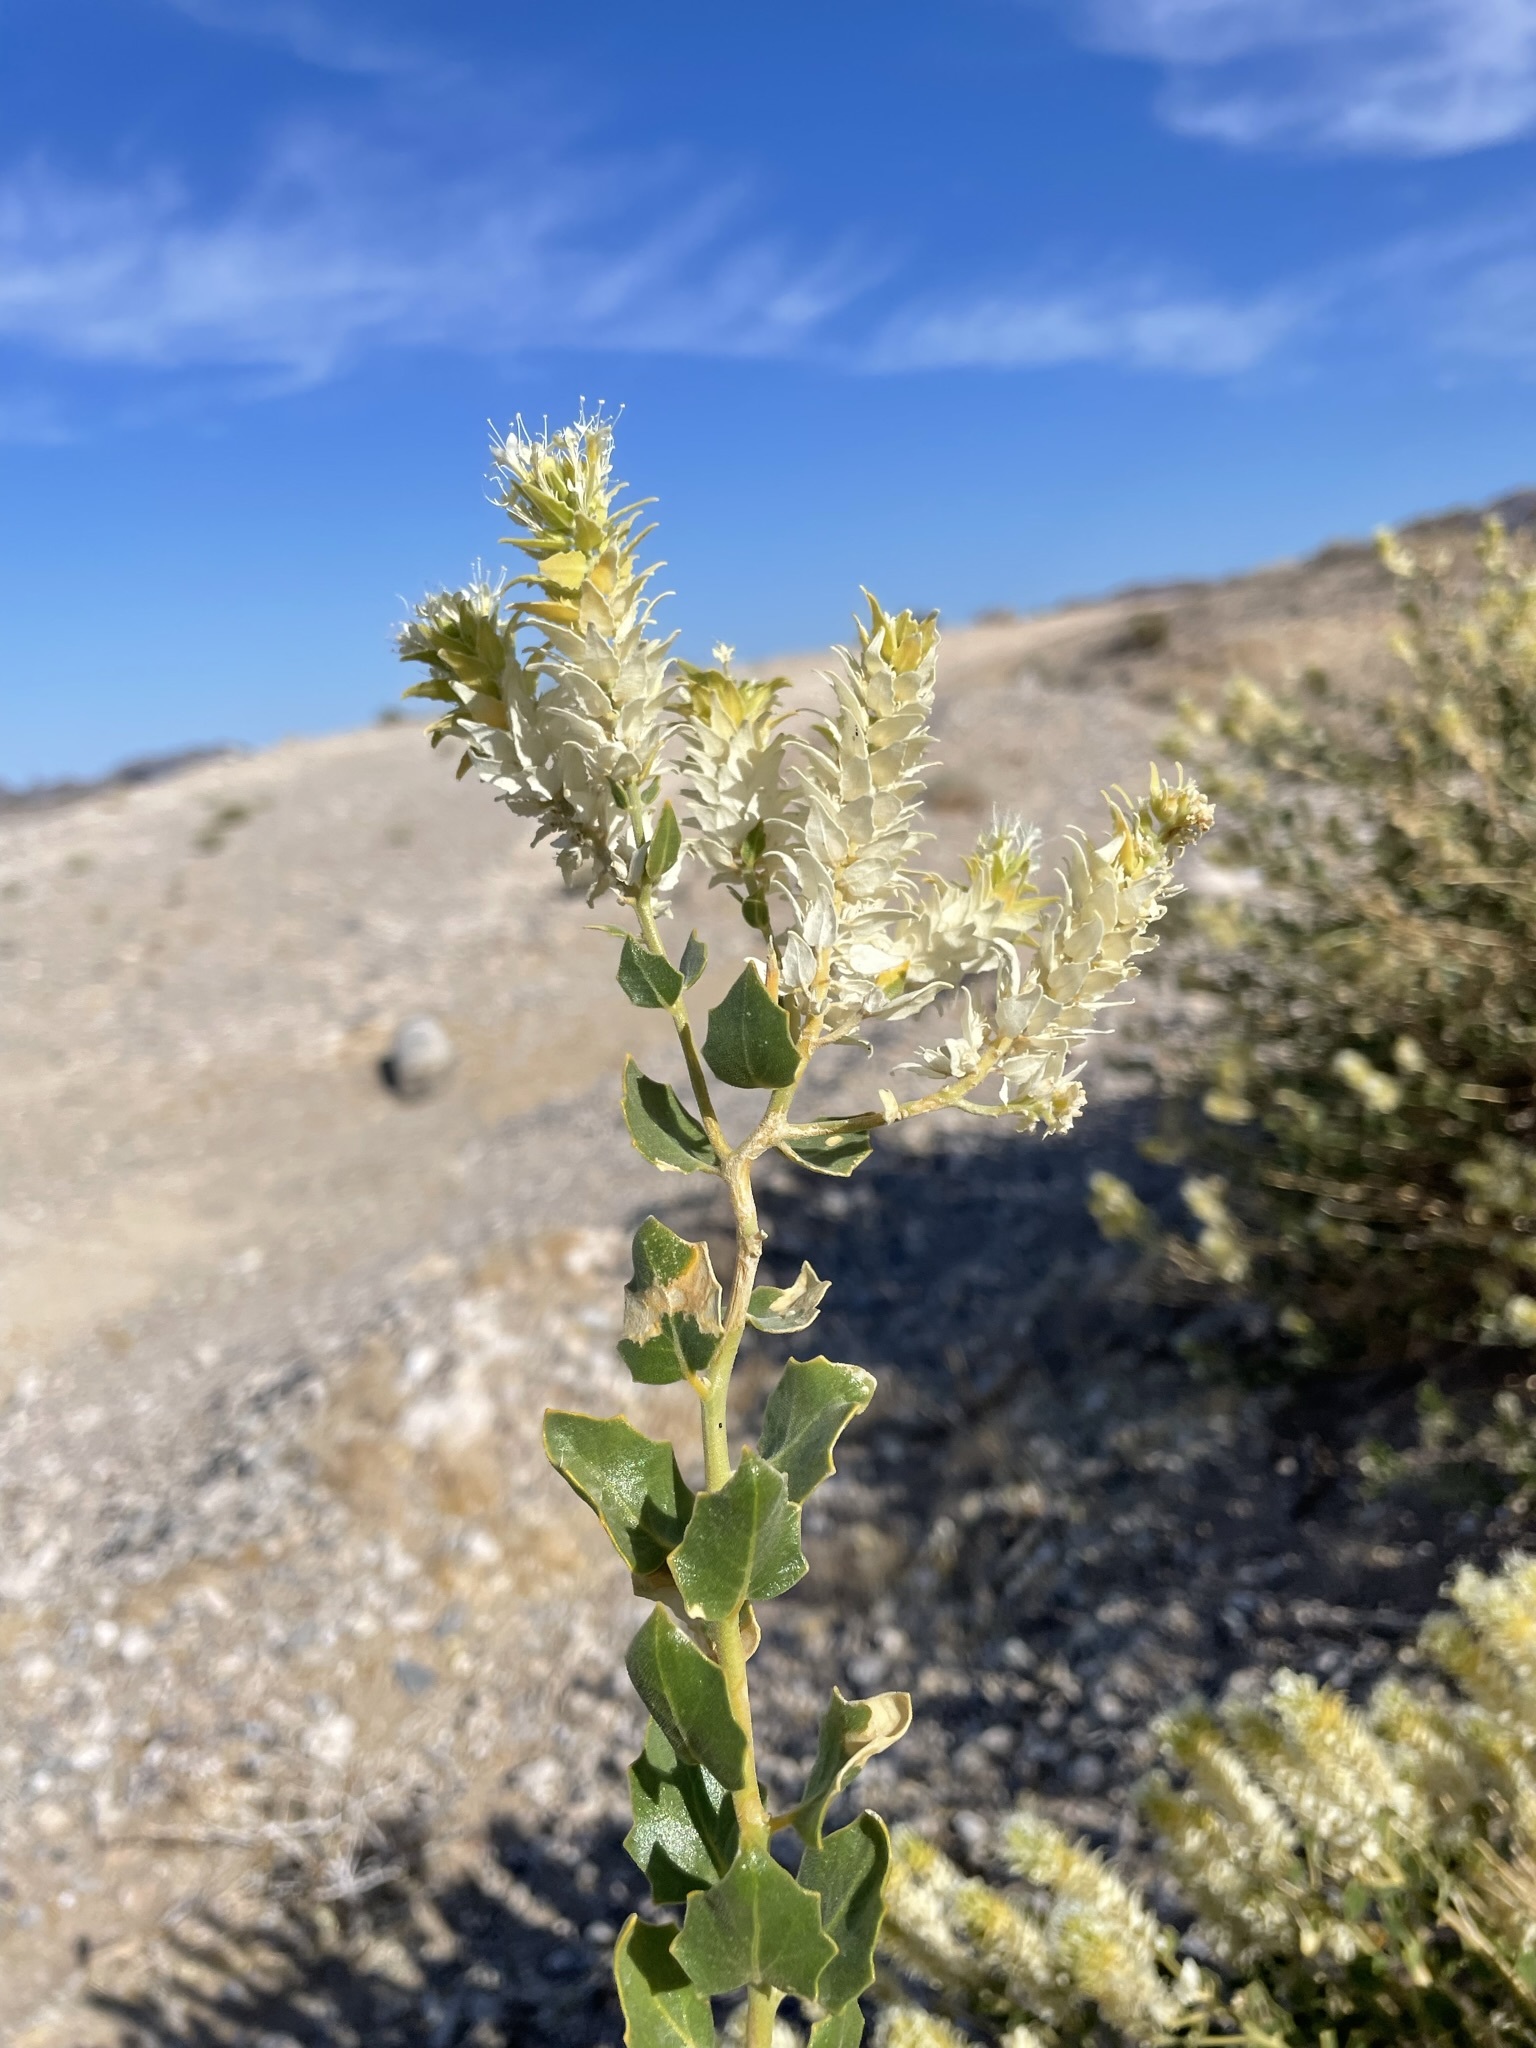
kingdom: Plantae
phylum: Tracheophyta
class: Magnoliopsida
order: Cornales
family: Loasaceae
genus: Petalonyx
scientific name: Petalonyx nitidus
